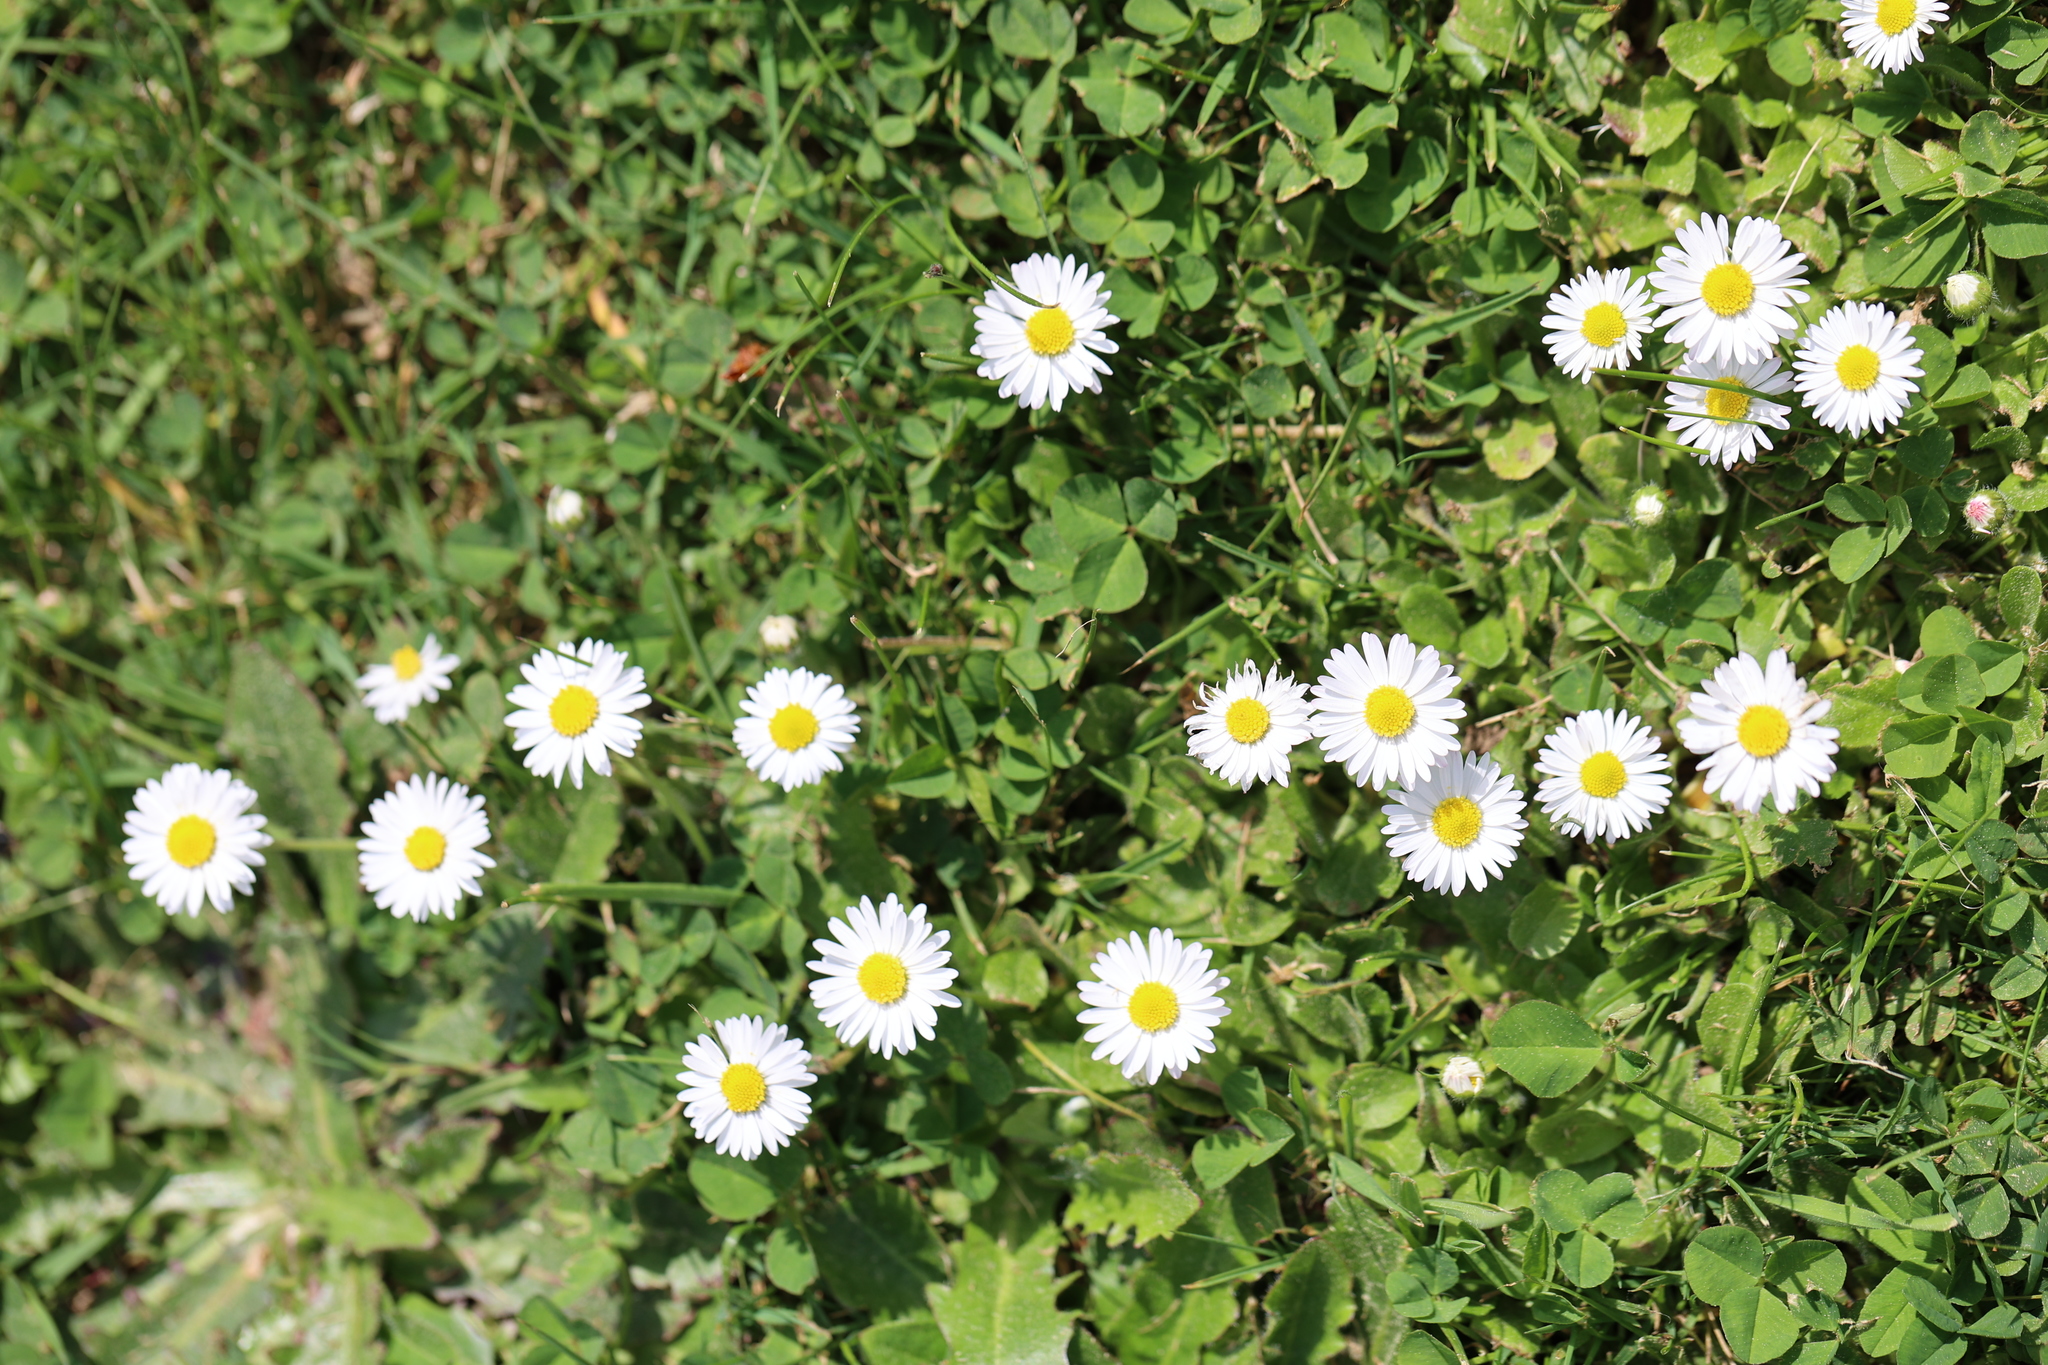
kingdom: Plantae
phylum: Tracheophyta
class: Magnoliopsida
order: Asterales
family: Asteraceae
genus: Bellis
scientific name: Bellis perennis
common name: Lawndaisy
